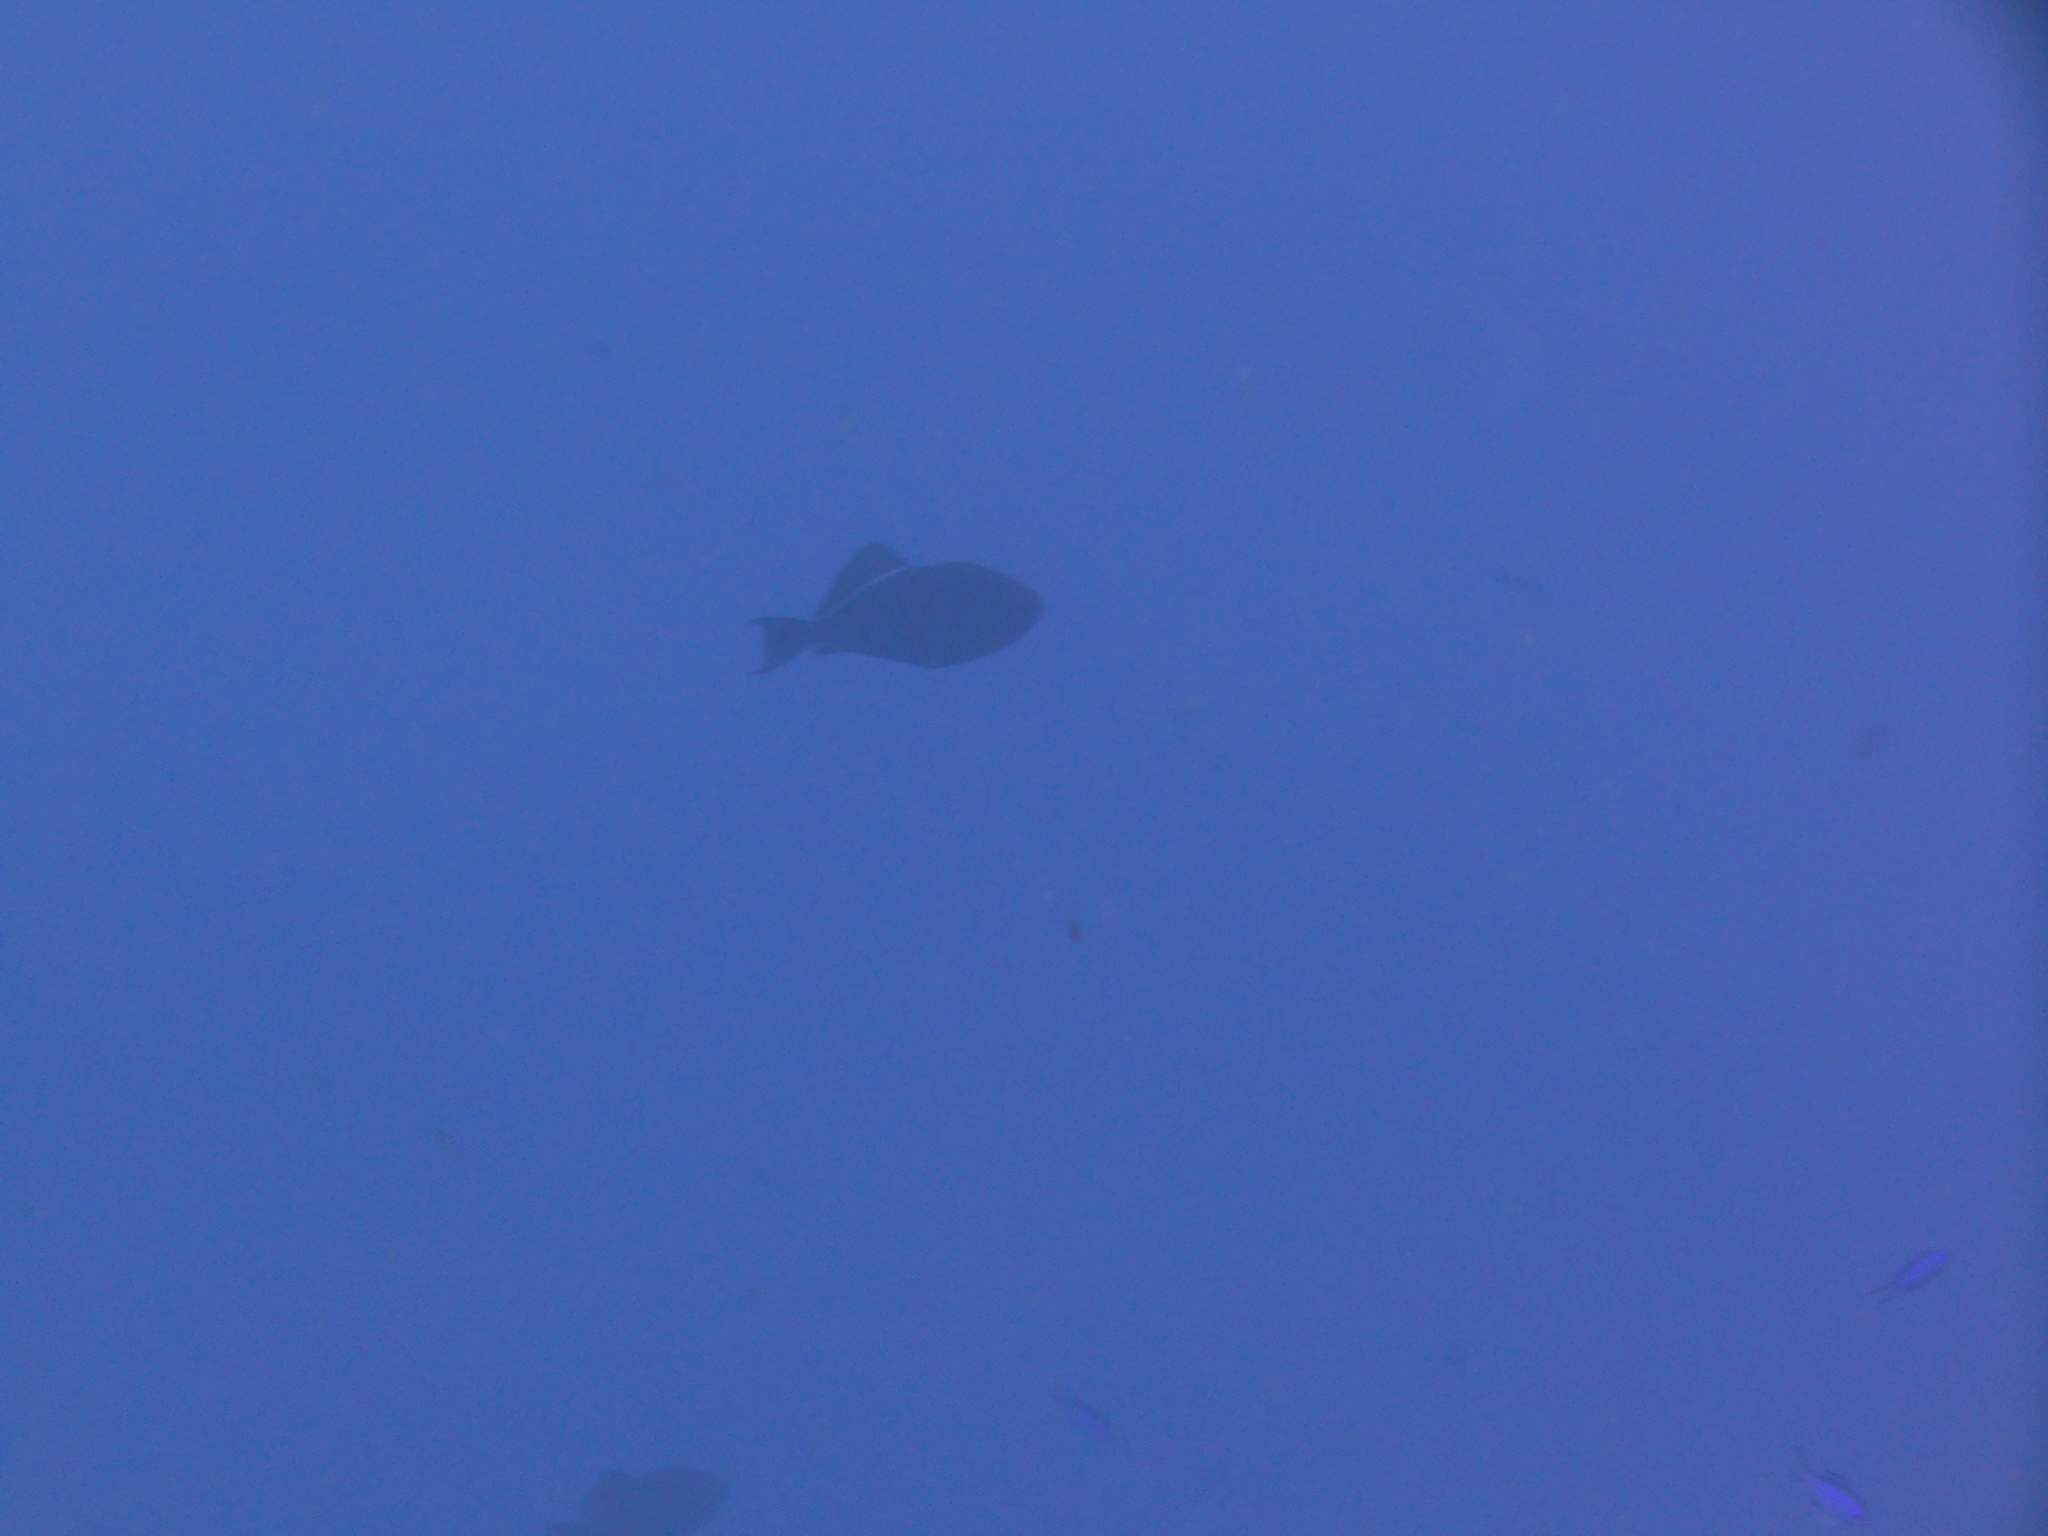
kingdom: Animalia
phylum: Chordata
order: Tetraodontiformes
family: Balistidae
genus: Melichthys
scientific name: Melichthys niger
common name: Black durgon
